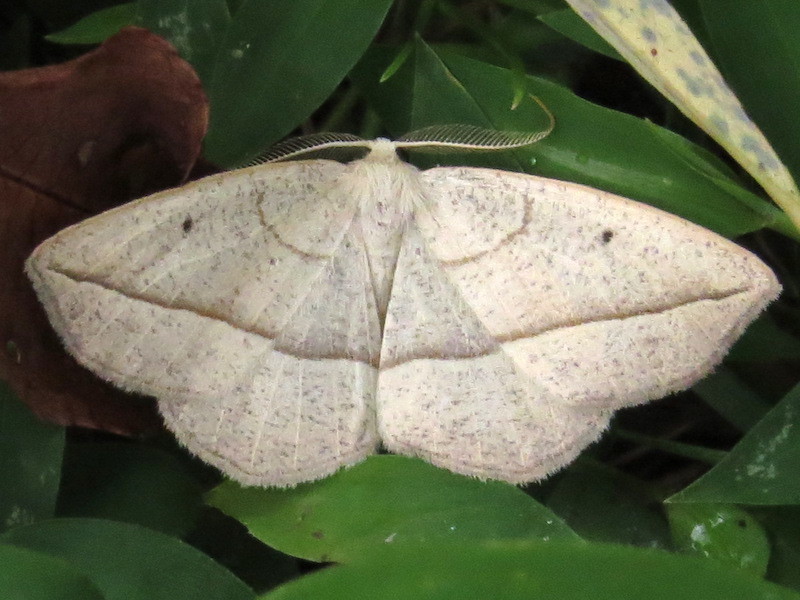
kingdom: Animalia
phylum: Arthropoda
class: Insecta
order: Lepidoptera
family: Geometridae
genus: Eusarca
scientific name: Eusarca confusaria
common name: Confused eusarca
